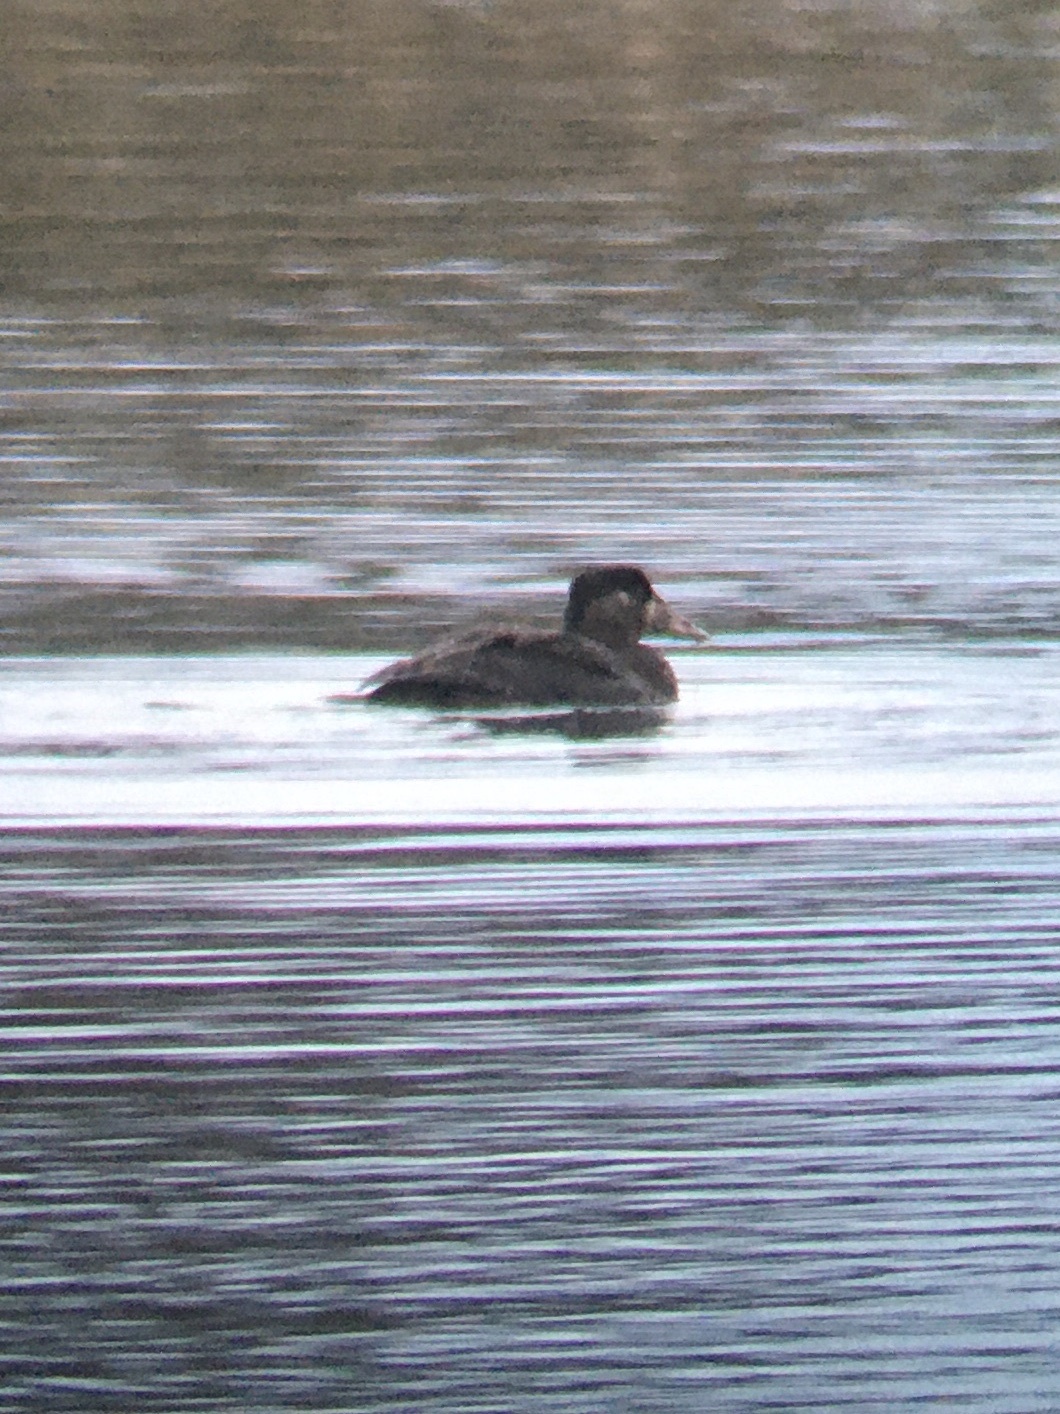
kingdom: Animalia
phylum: Chordata
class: Aves
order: Anseriformes
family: Anatidae
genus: Melanitta
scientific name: Melanitta perspicillata
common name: Surf scoter
